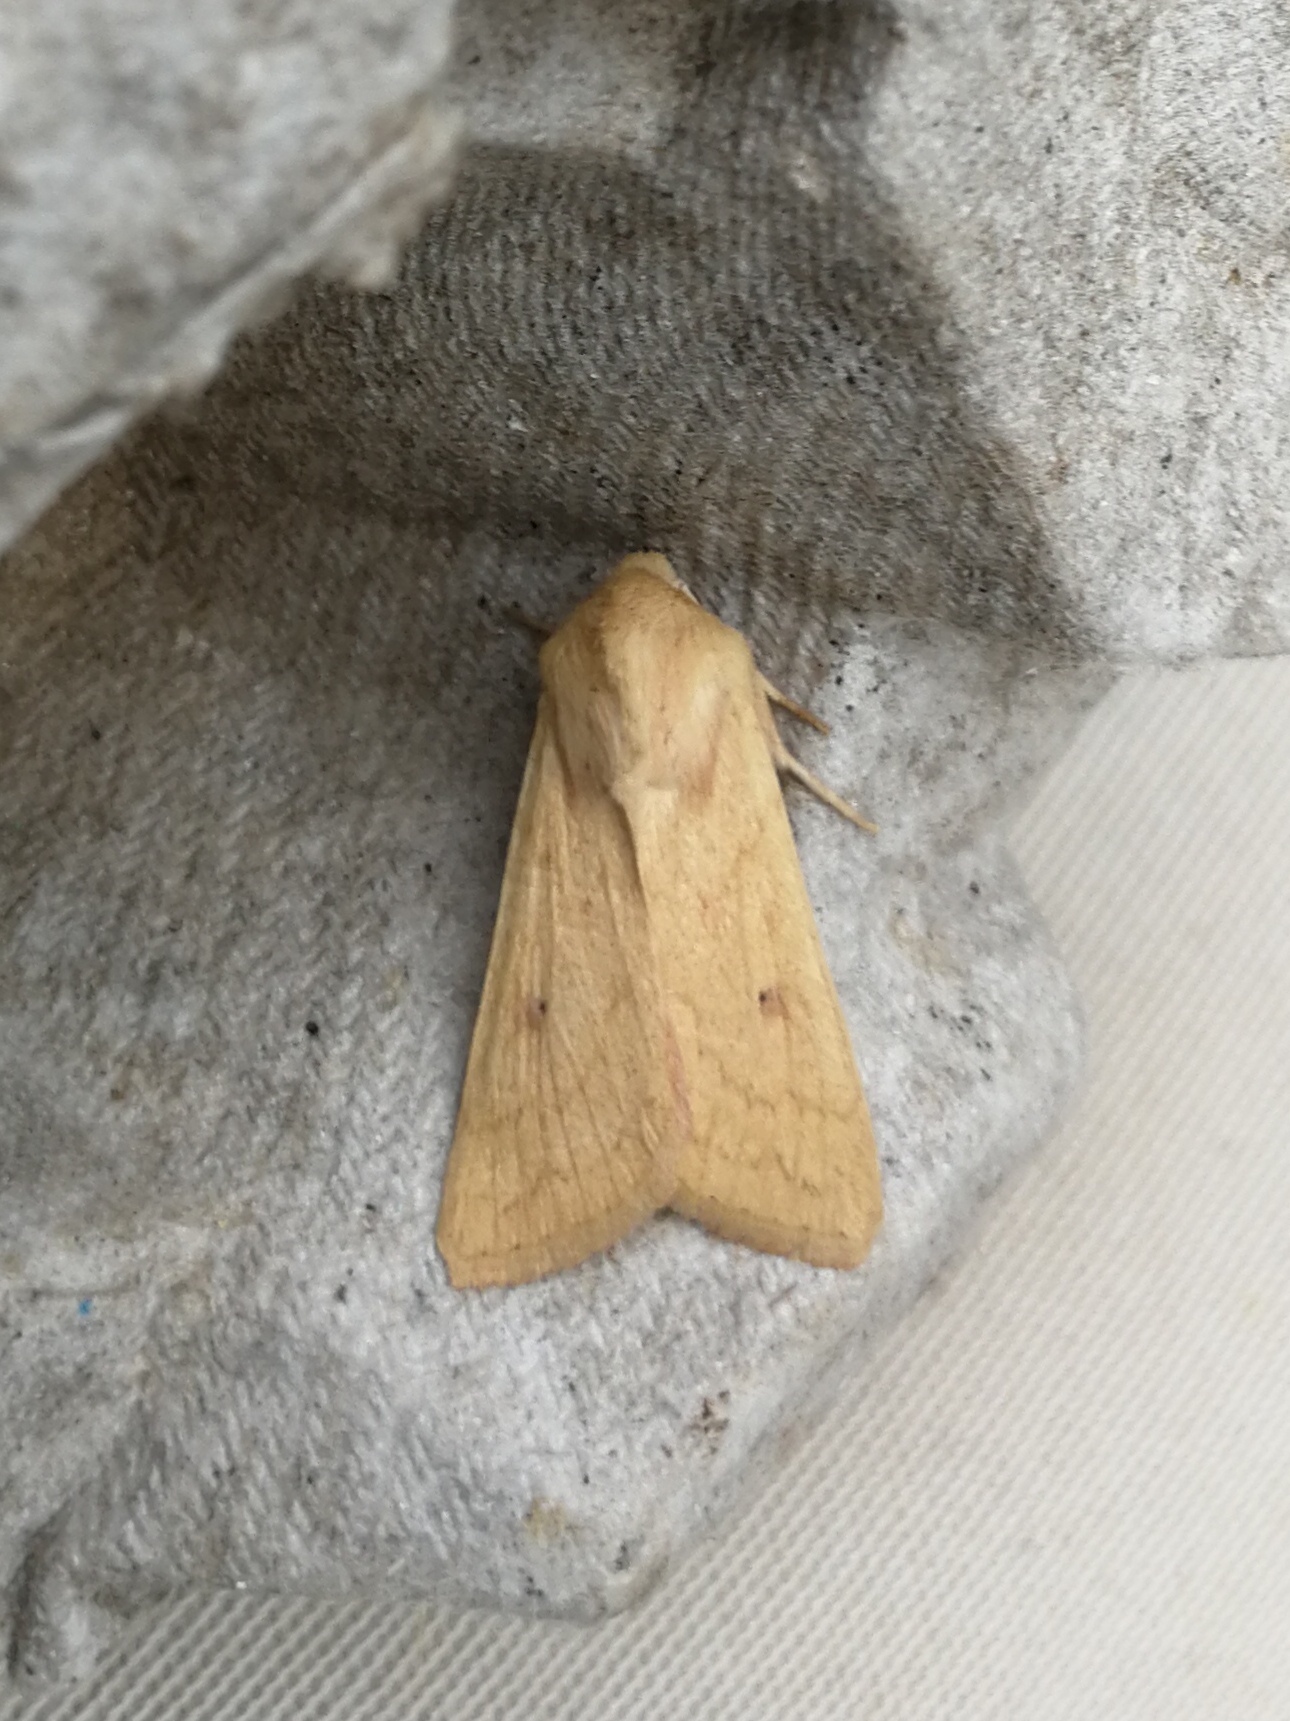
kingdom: Animalia
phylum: Arthropoda
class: Insecta
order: Lepidoptera
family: Noctuidae
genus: Mythimna
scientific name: Mythimna vitellina
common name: Delicate
